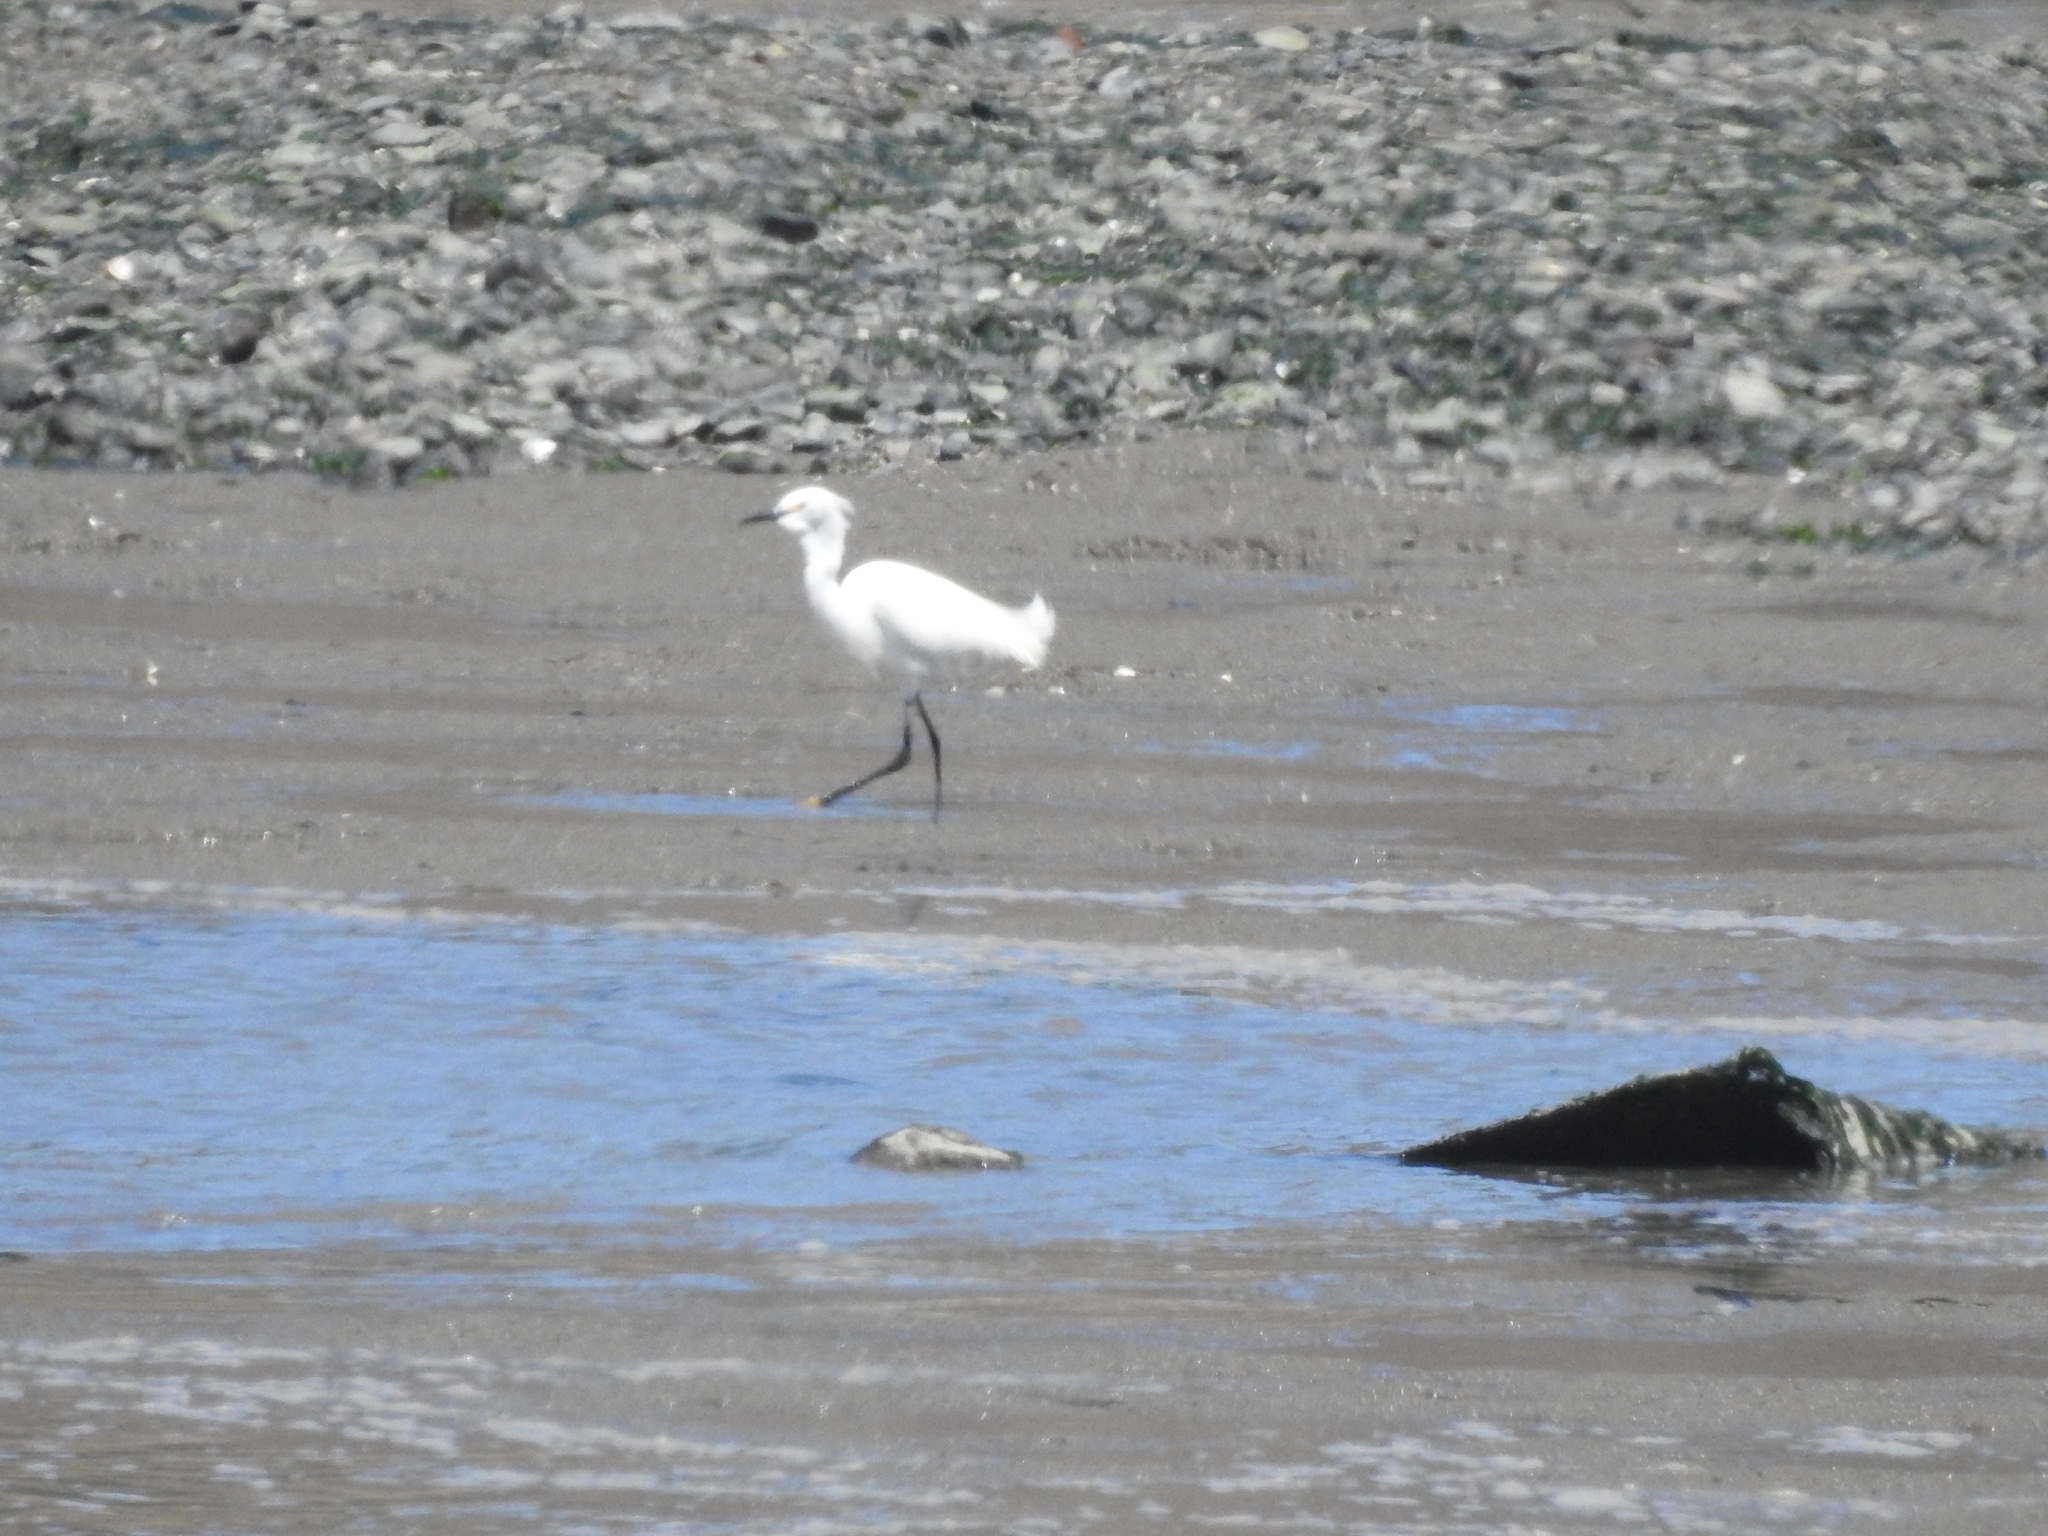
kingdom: Animalia
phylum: Chordata
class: Aves
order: Pelecaniformes
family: Ardeidae
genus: Egretta
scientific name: Egretta thula
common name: Snowy egret
